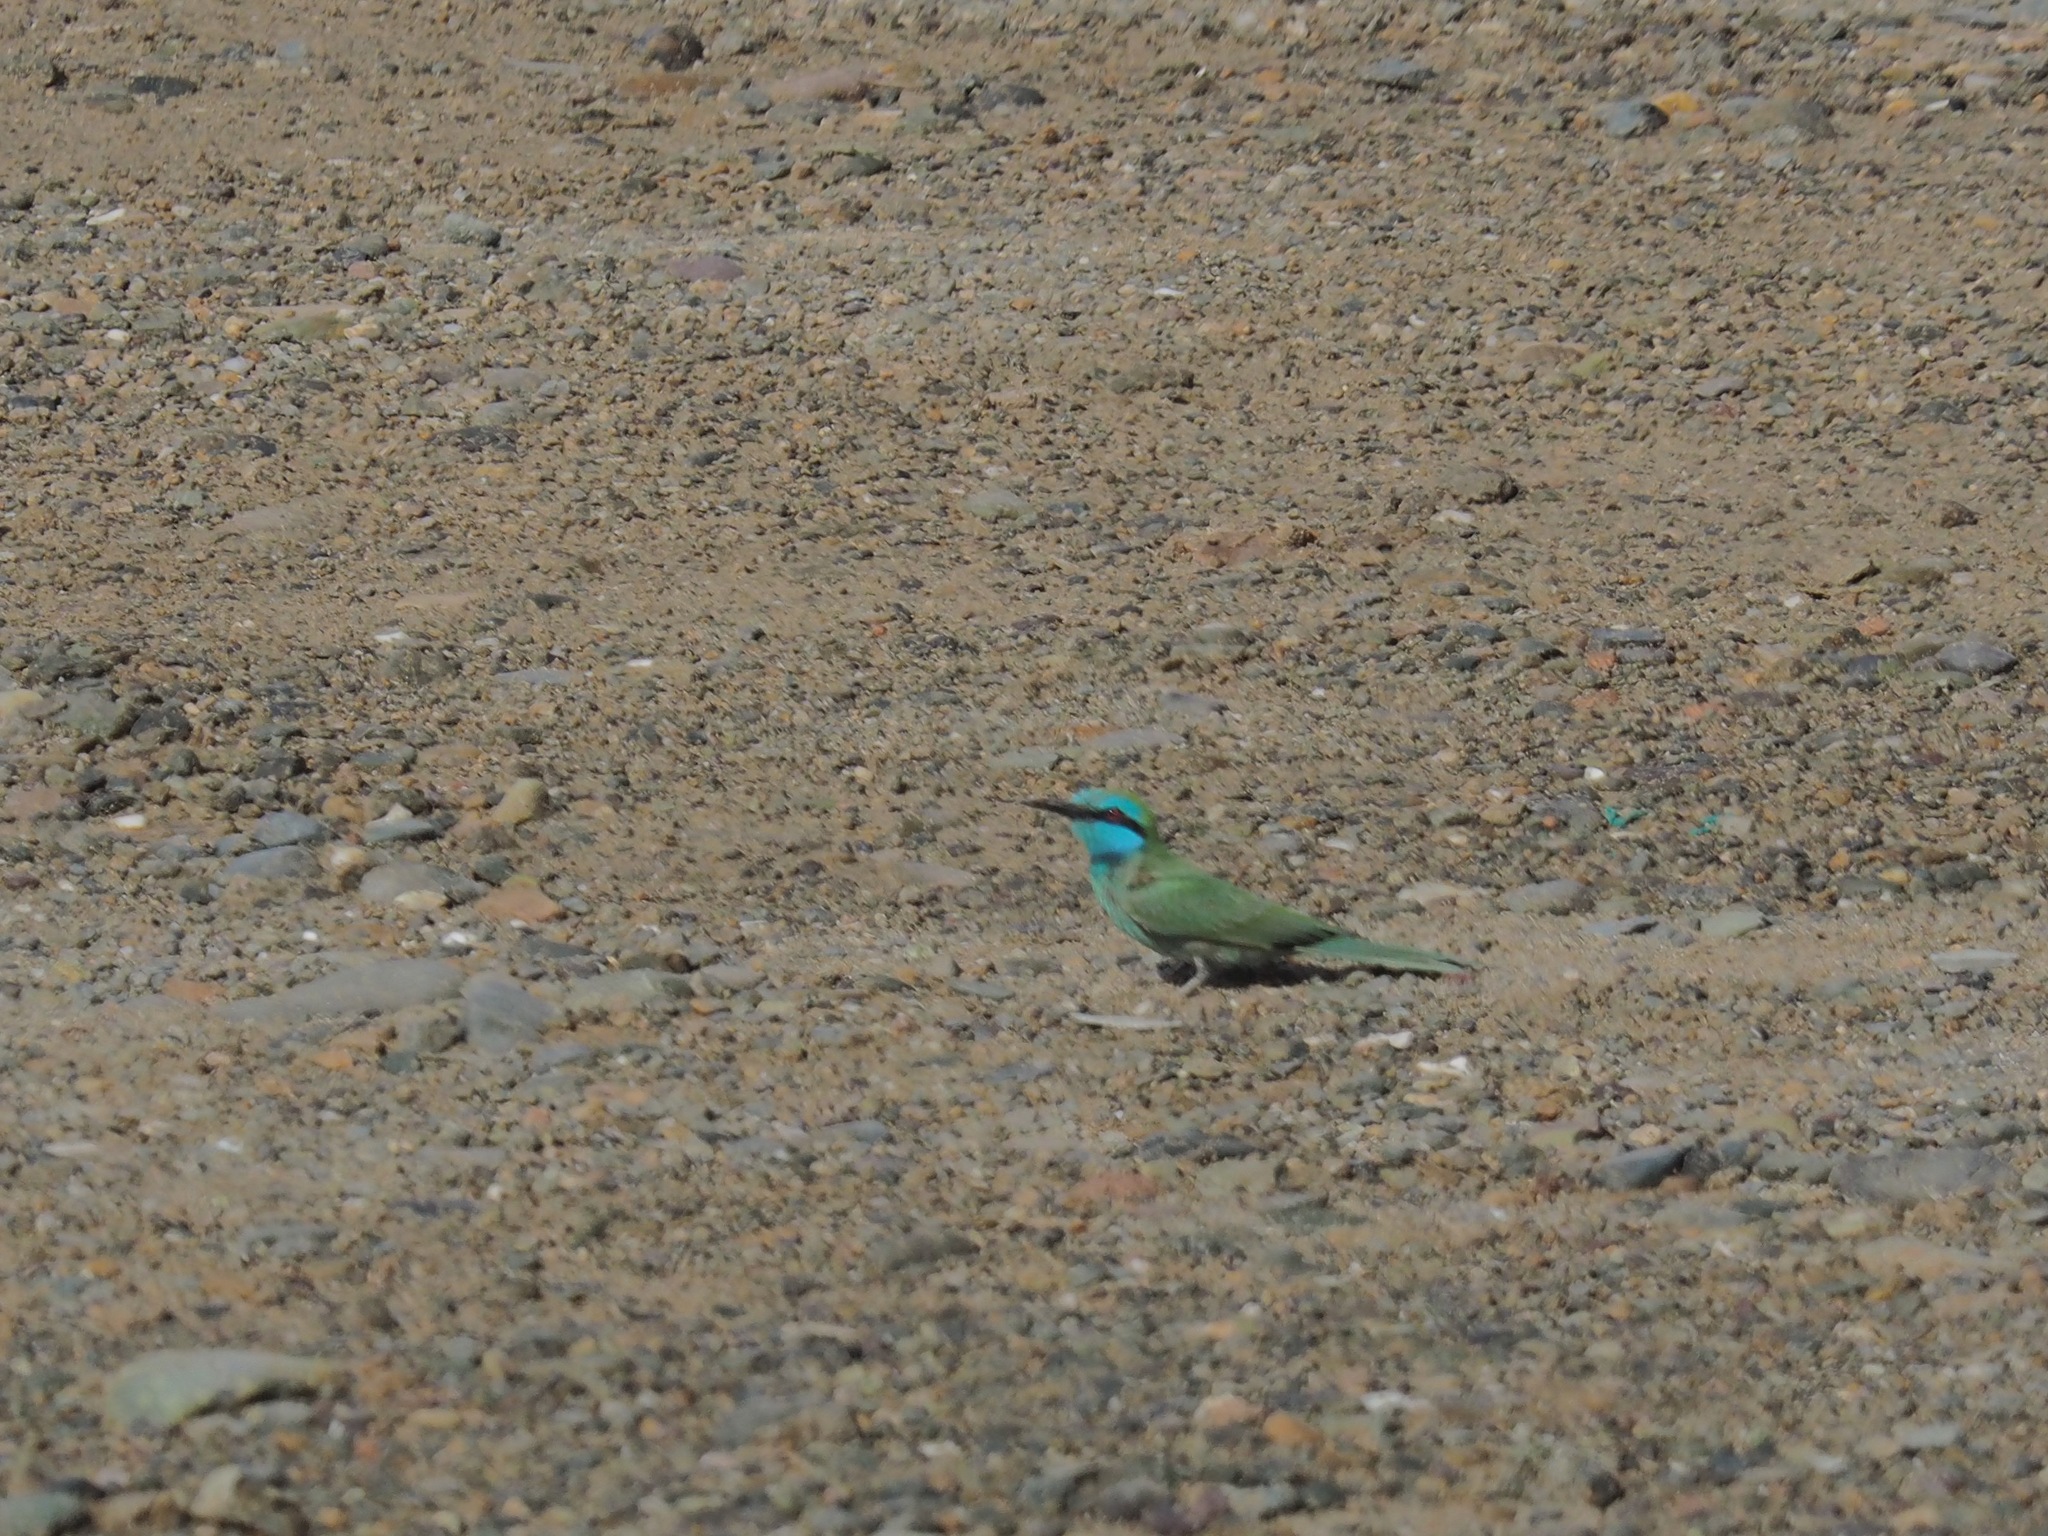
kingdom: Animalia
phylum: Chordata
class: Aves
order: Coraciiformes
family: Meropidae
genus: Merops
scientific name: Merops cyanophrys
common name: Arabian green bee-eater
